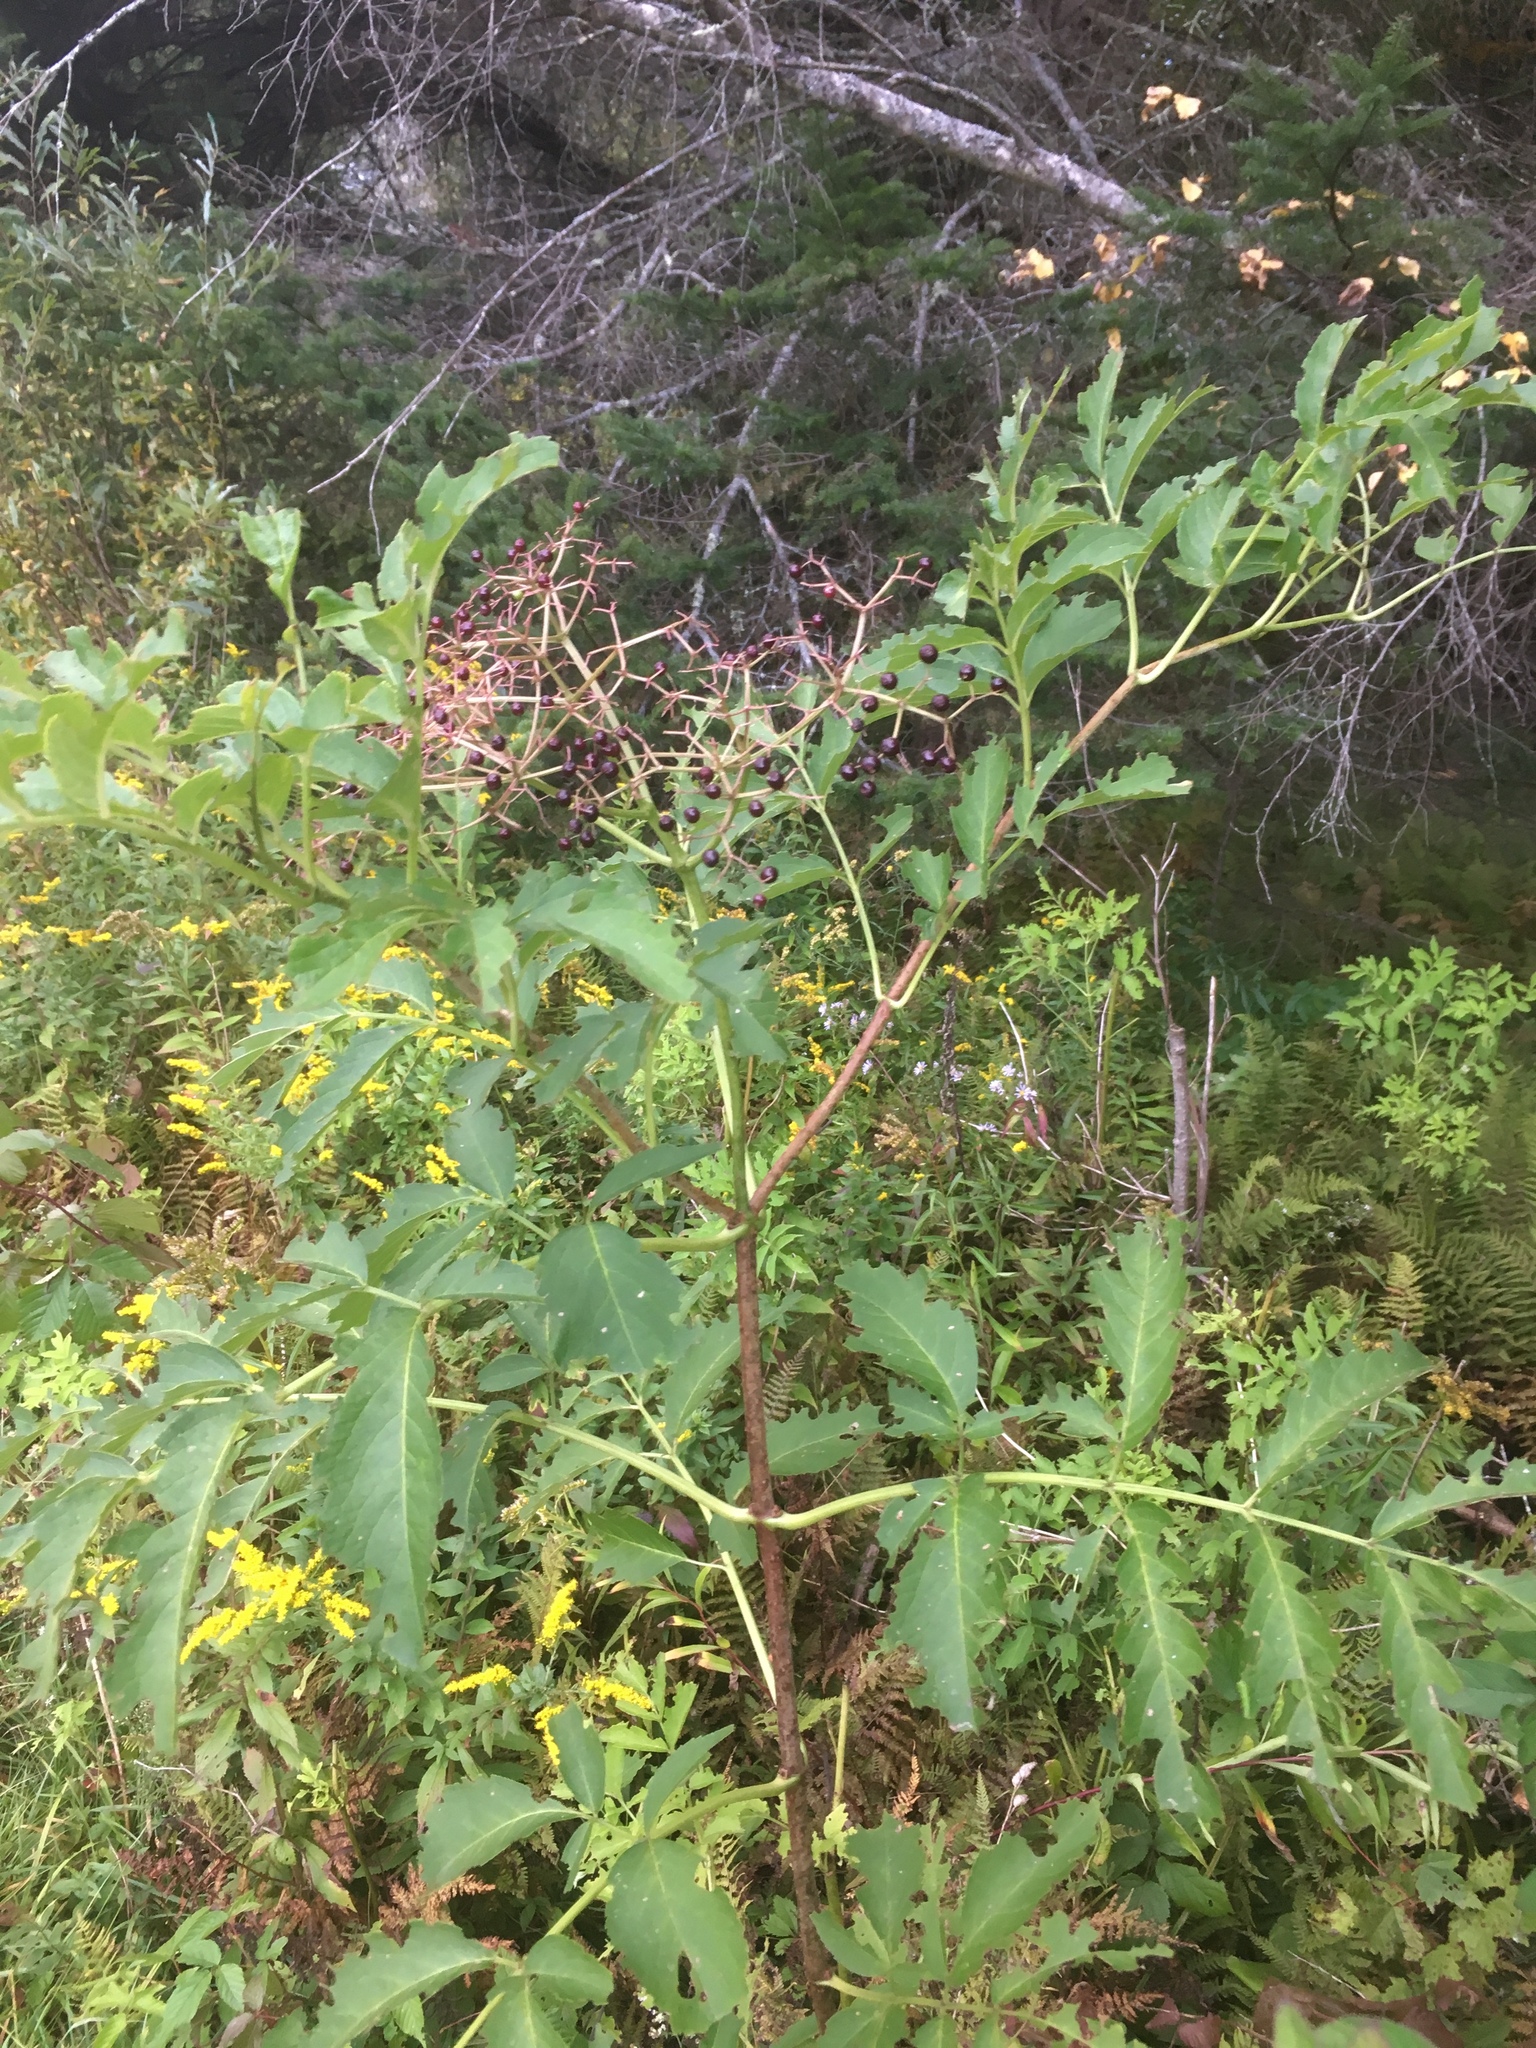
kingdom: Plantae
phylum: Tracheophyta
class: Magnoliopsida
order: Dipsacales
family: Viburnaceae
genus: Sambucus
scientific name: Sambucus canadensis
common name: American elder
